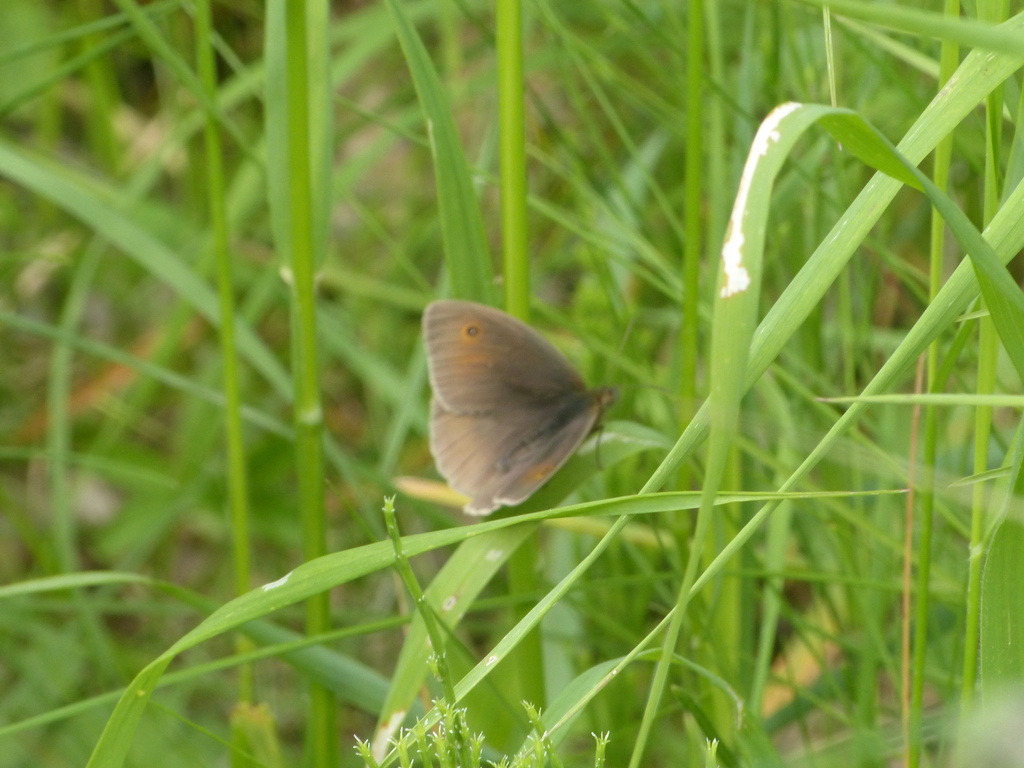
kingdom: Animalia
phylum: Arthropoda
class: Insecta
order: Lepidoptera
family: Nymphalidae
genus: Maniola
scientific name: Maniola jurtina
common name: Meadow brown
